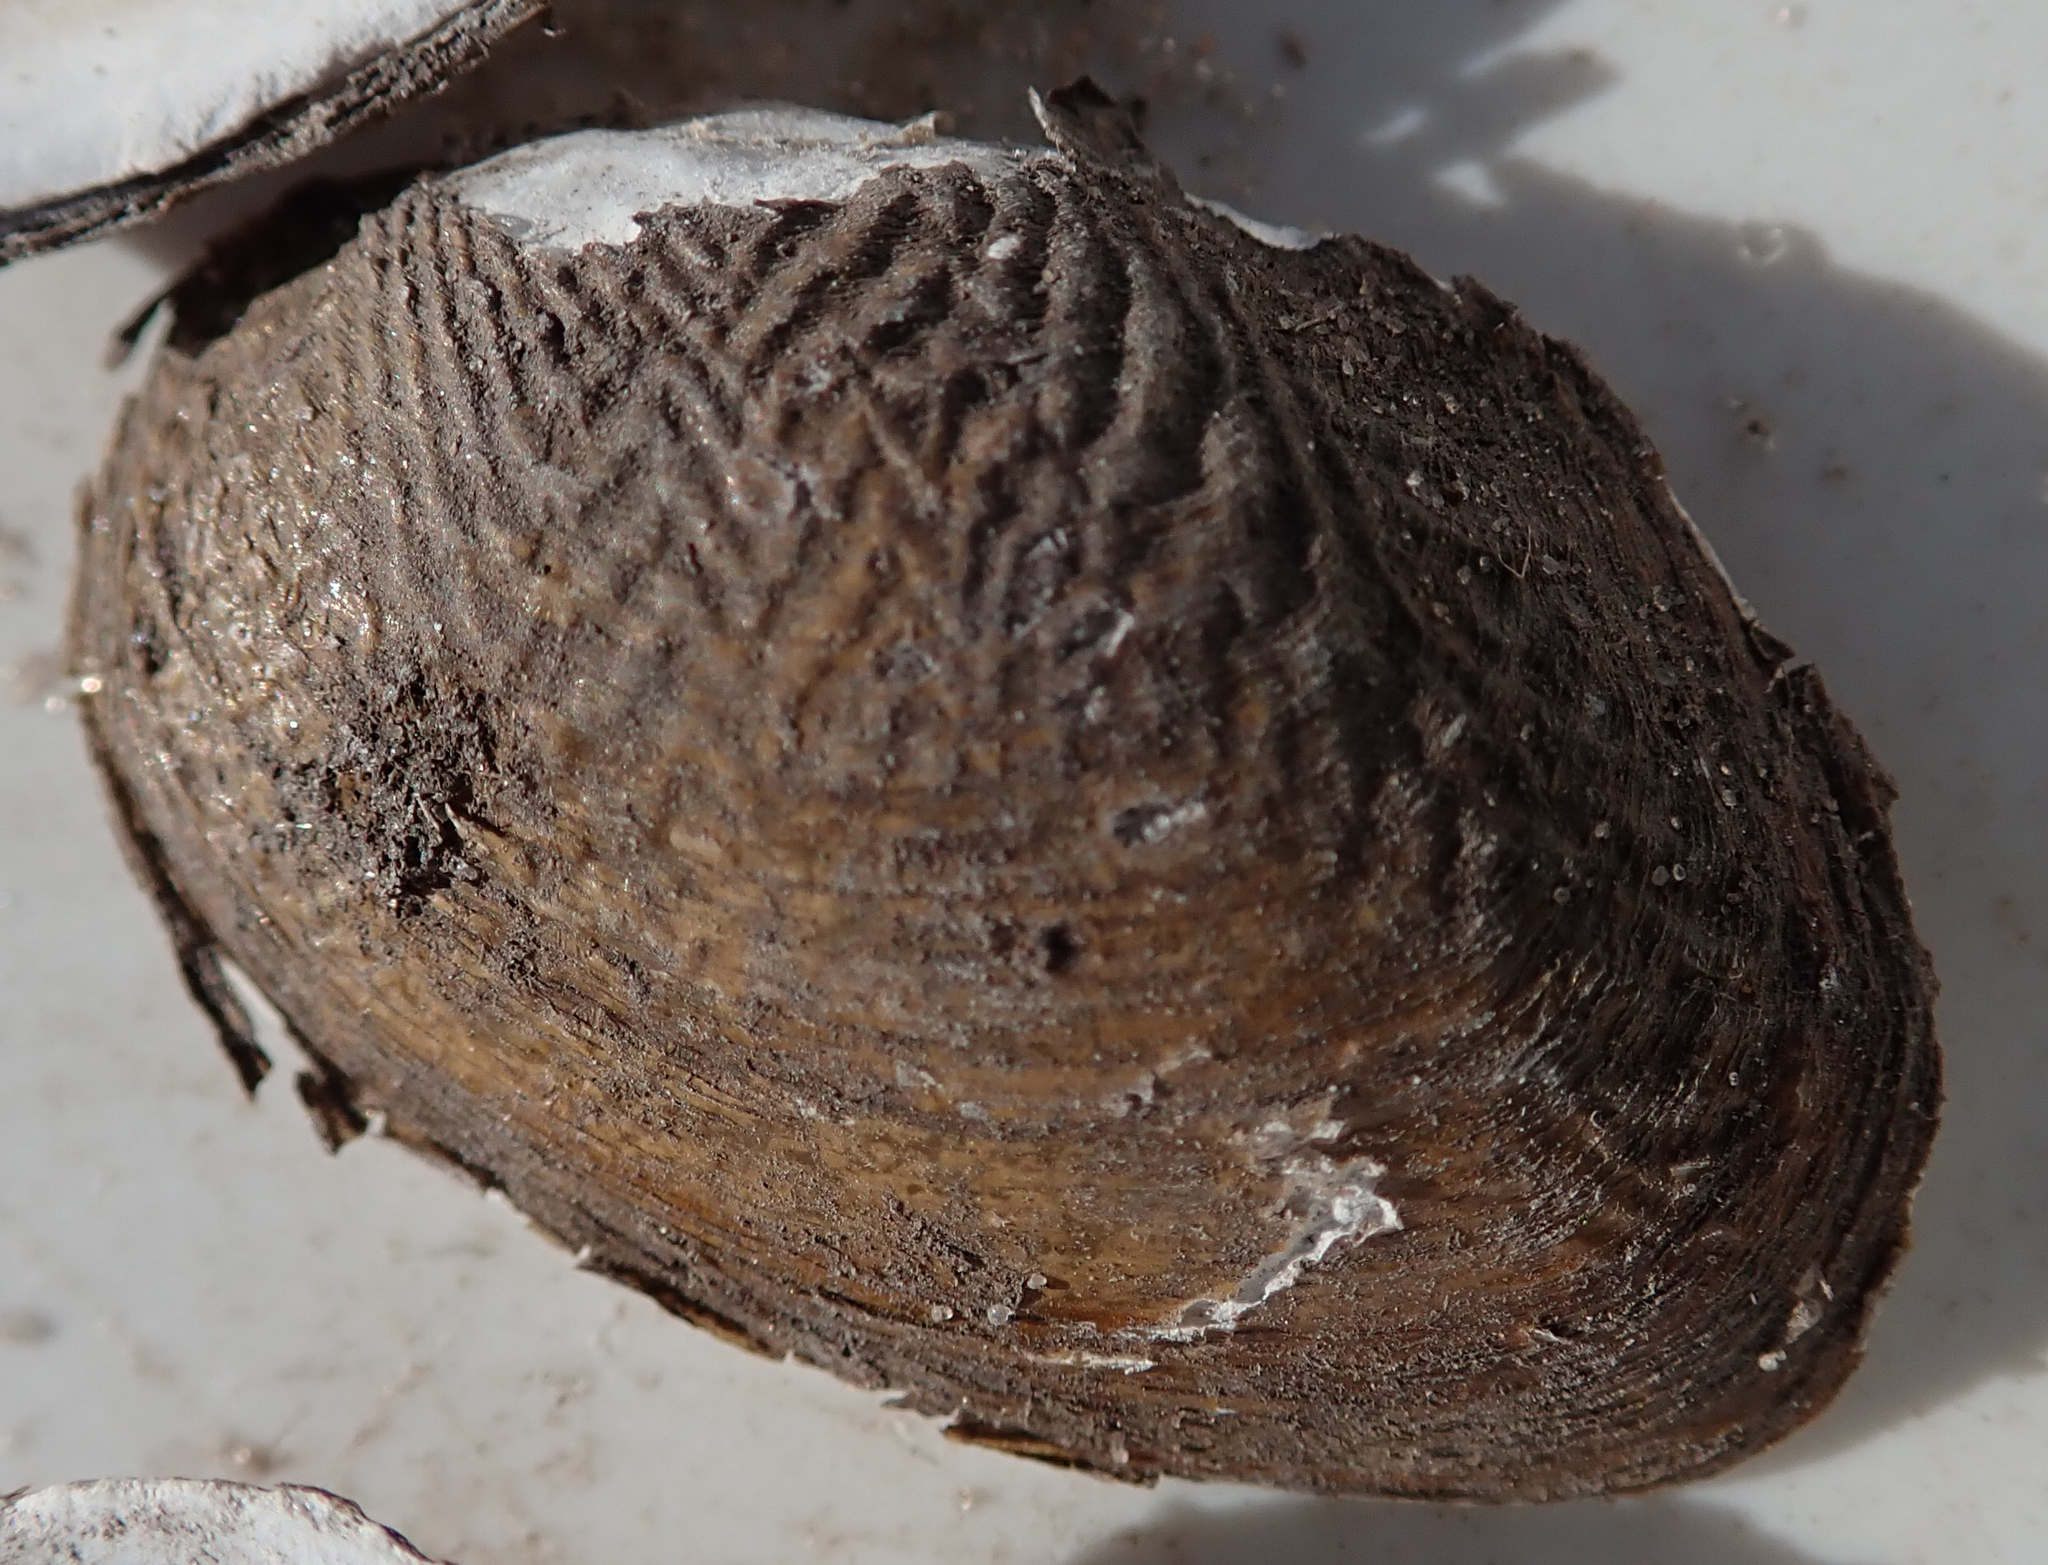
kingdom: Animalia
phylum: Mollusca
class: Bivalvia
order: Unionida
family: Unionidae
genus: Coelatura
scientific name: Coelatura kunenensis
